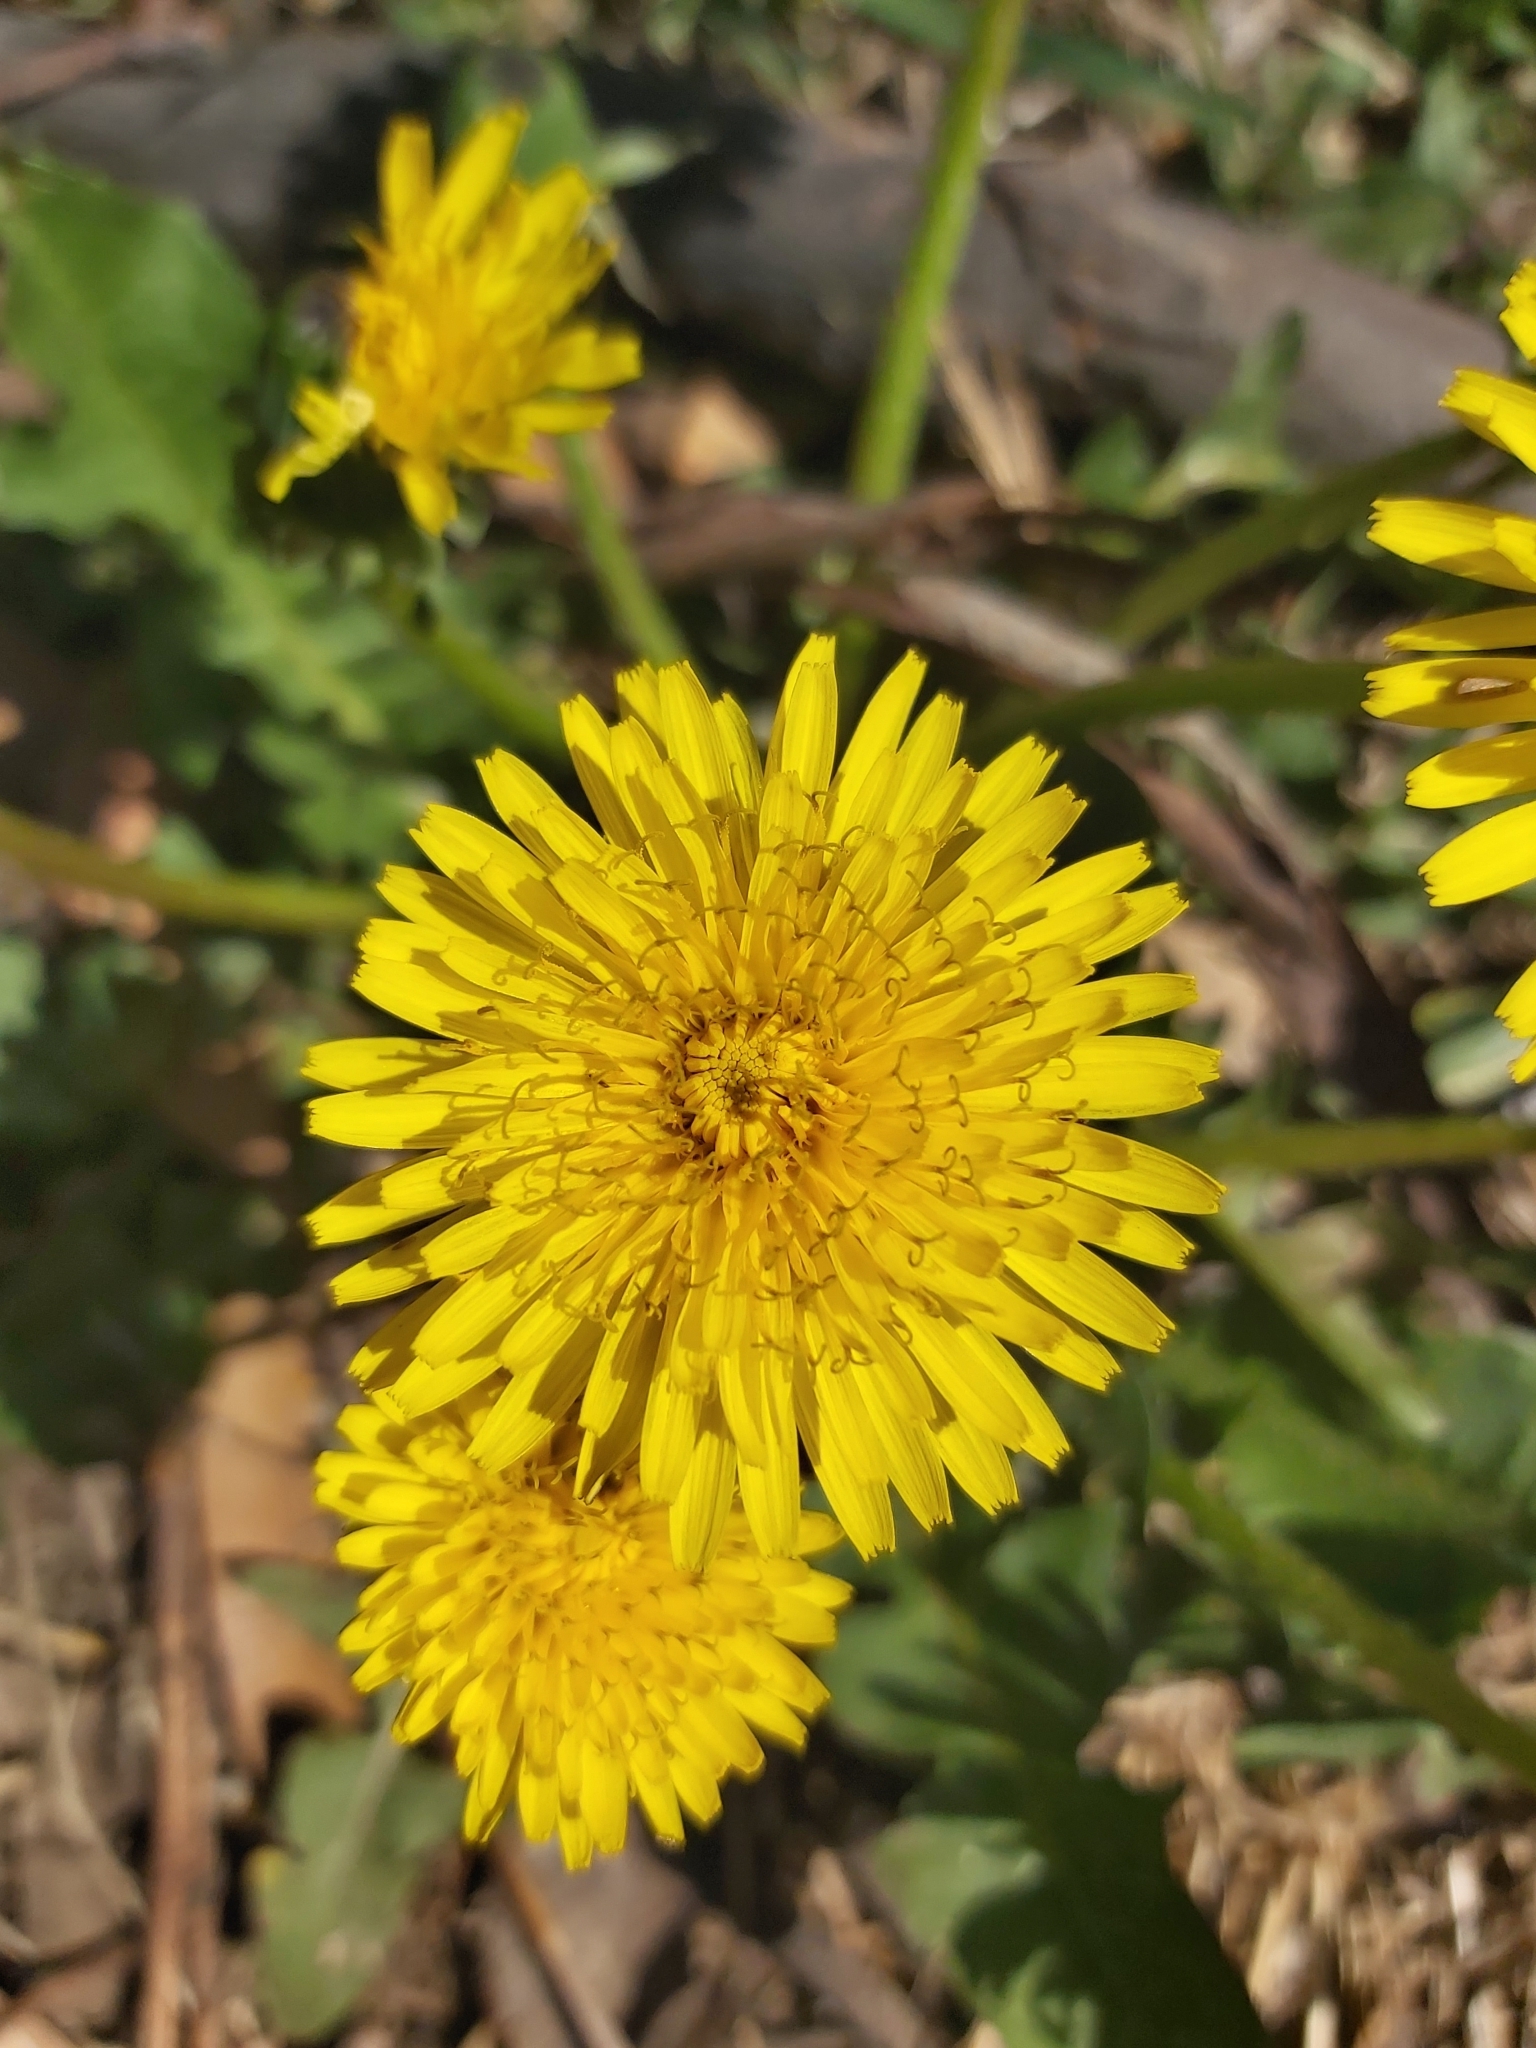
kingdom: Plantae
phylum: Tracheophyta
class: Magnoliopsida
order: Asterales
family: Asteraceae
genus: Taraxacum
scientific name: Taraxacum officinale
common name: Common dandelion
